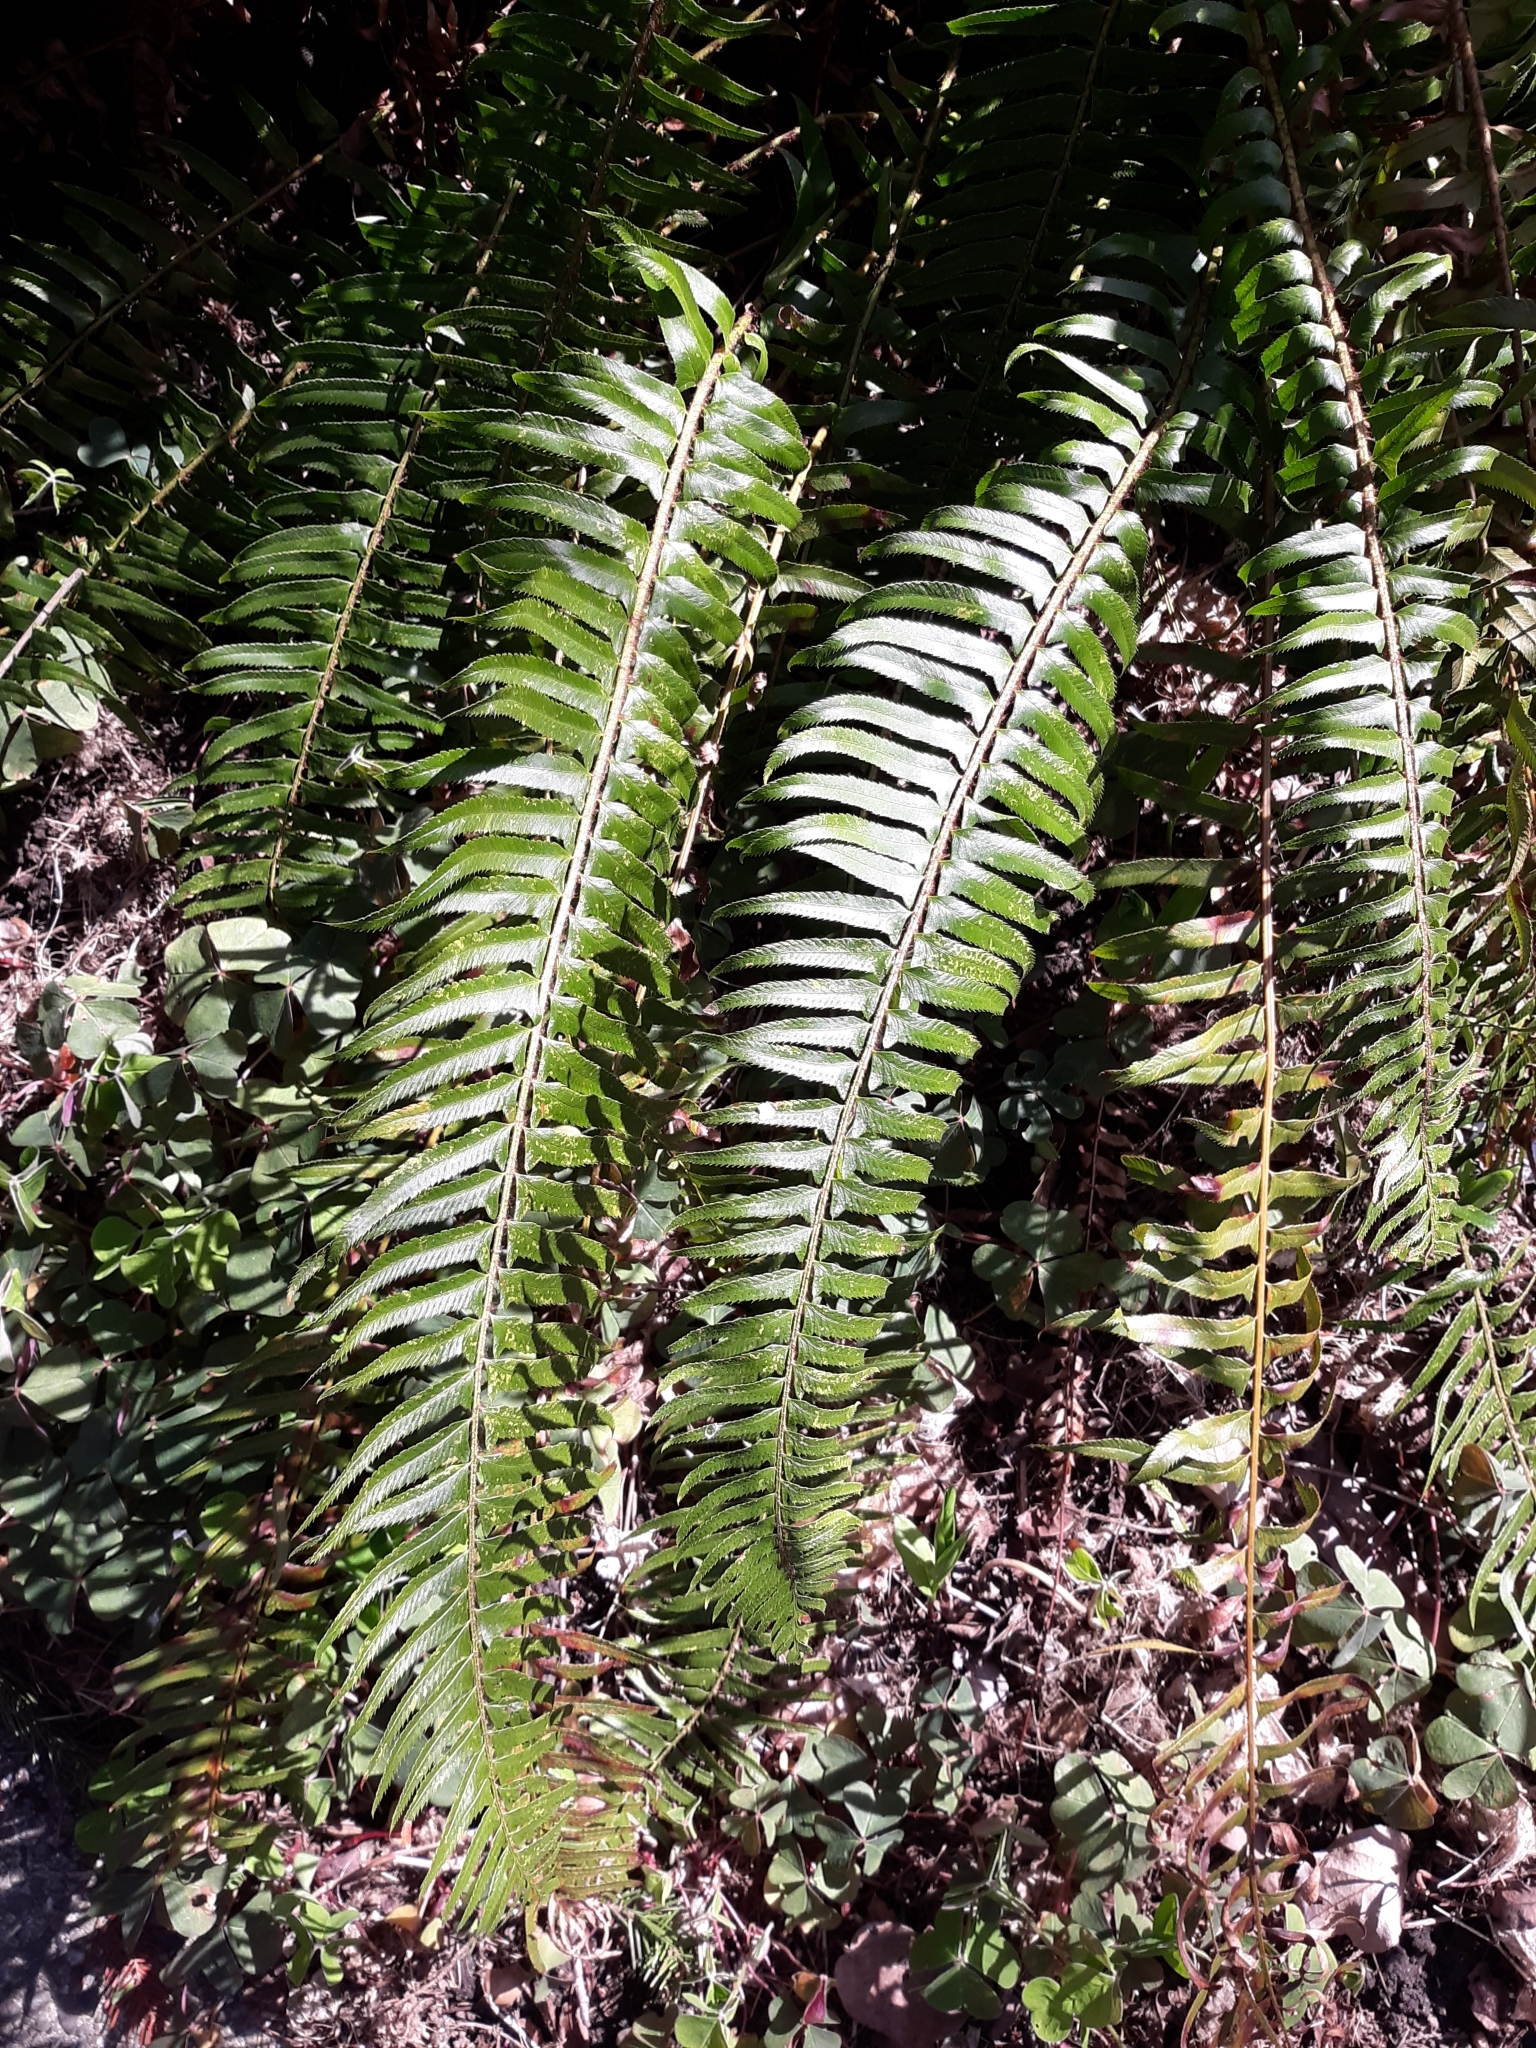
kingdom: Plantae
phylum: Tracheophyta
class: Polypodiopsida
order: Polypodiales
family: Dryopteridaceae
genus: Polystichum
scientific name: Polystichum munitum
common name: Western sword-fern
